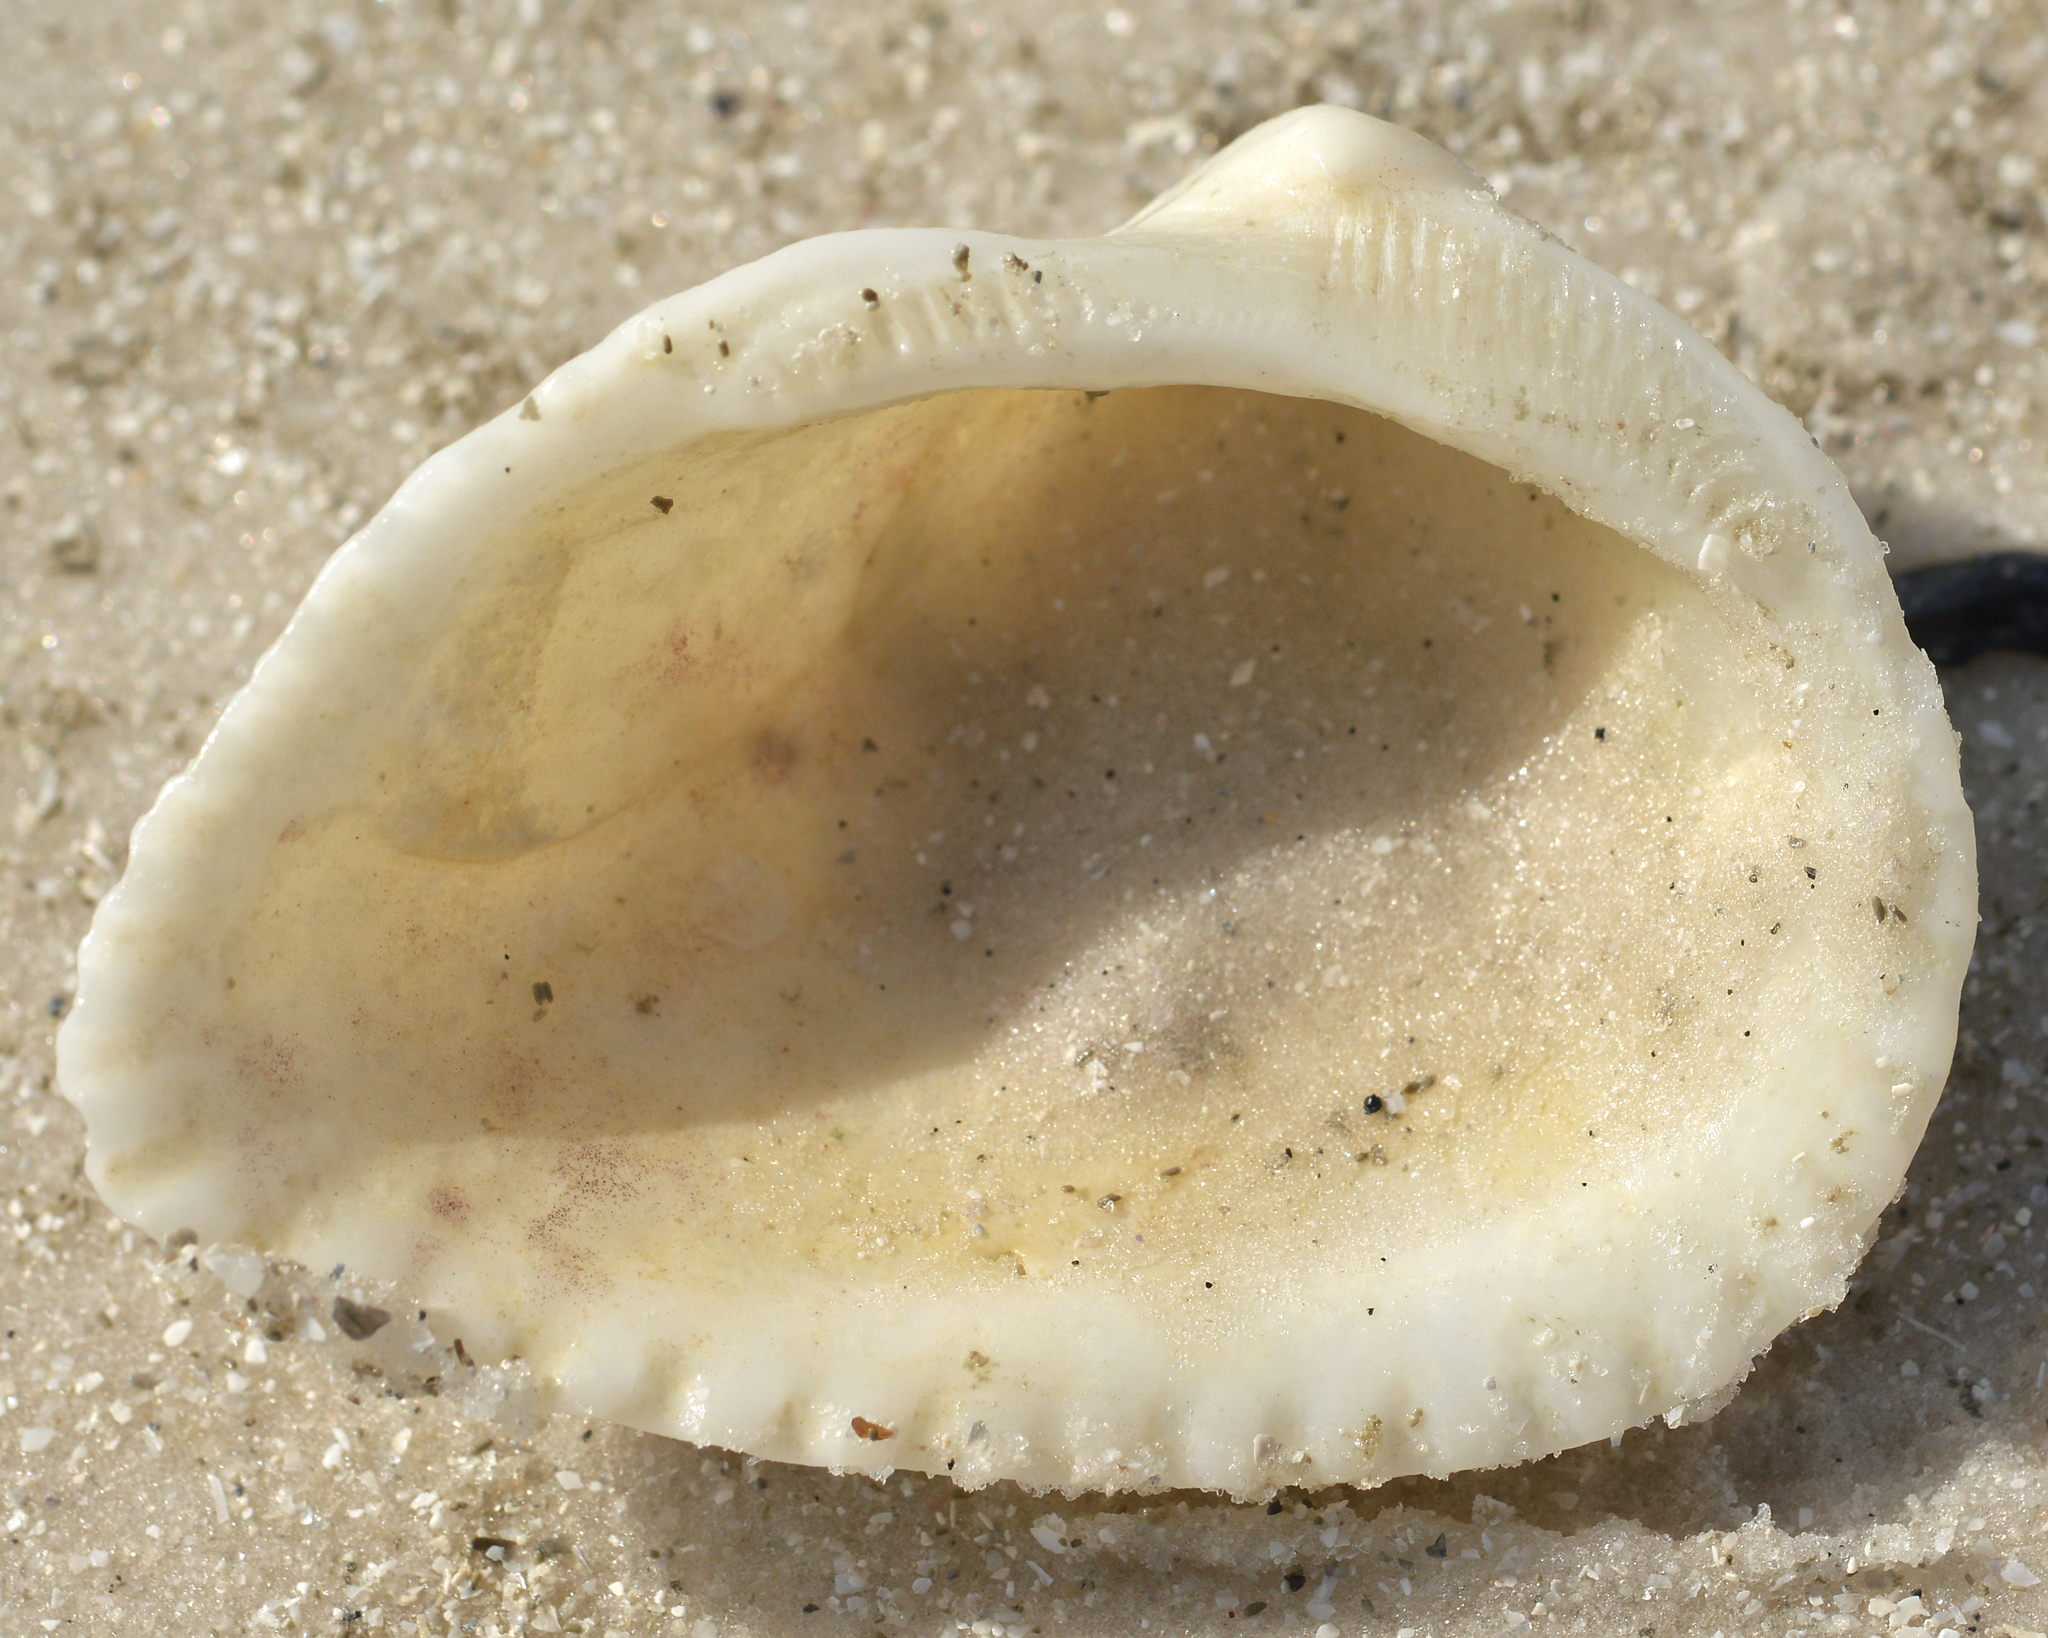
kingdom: Animalia
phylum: Mollusca
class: Bivalvia
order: Arcida
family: Noetiidae
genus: Noetia
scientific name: Noetia ponderosa
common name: Ponderous ark
